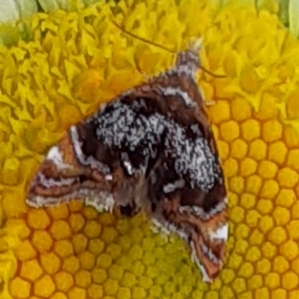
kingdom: Animalia
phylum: Arthropoda
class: Insecta
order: Lepidoptera
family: Choreutidae
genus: Prochoreutis
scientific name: Prochoreutis inflatella
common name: Skullcap skeletonizer moth
